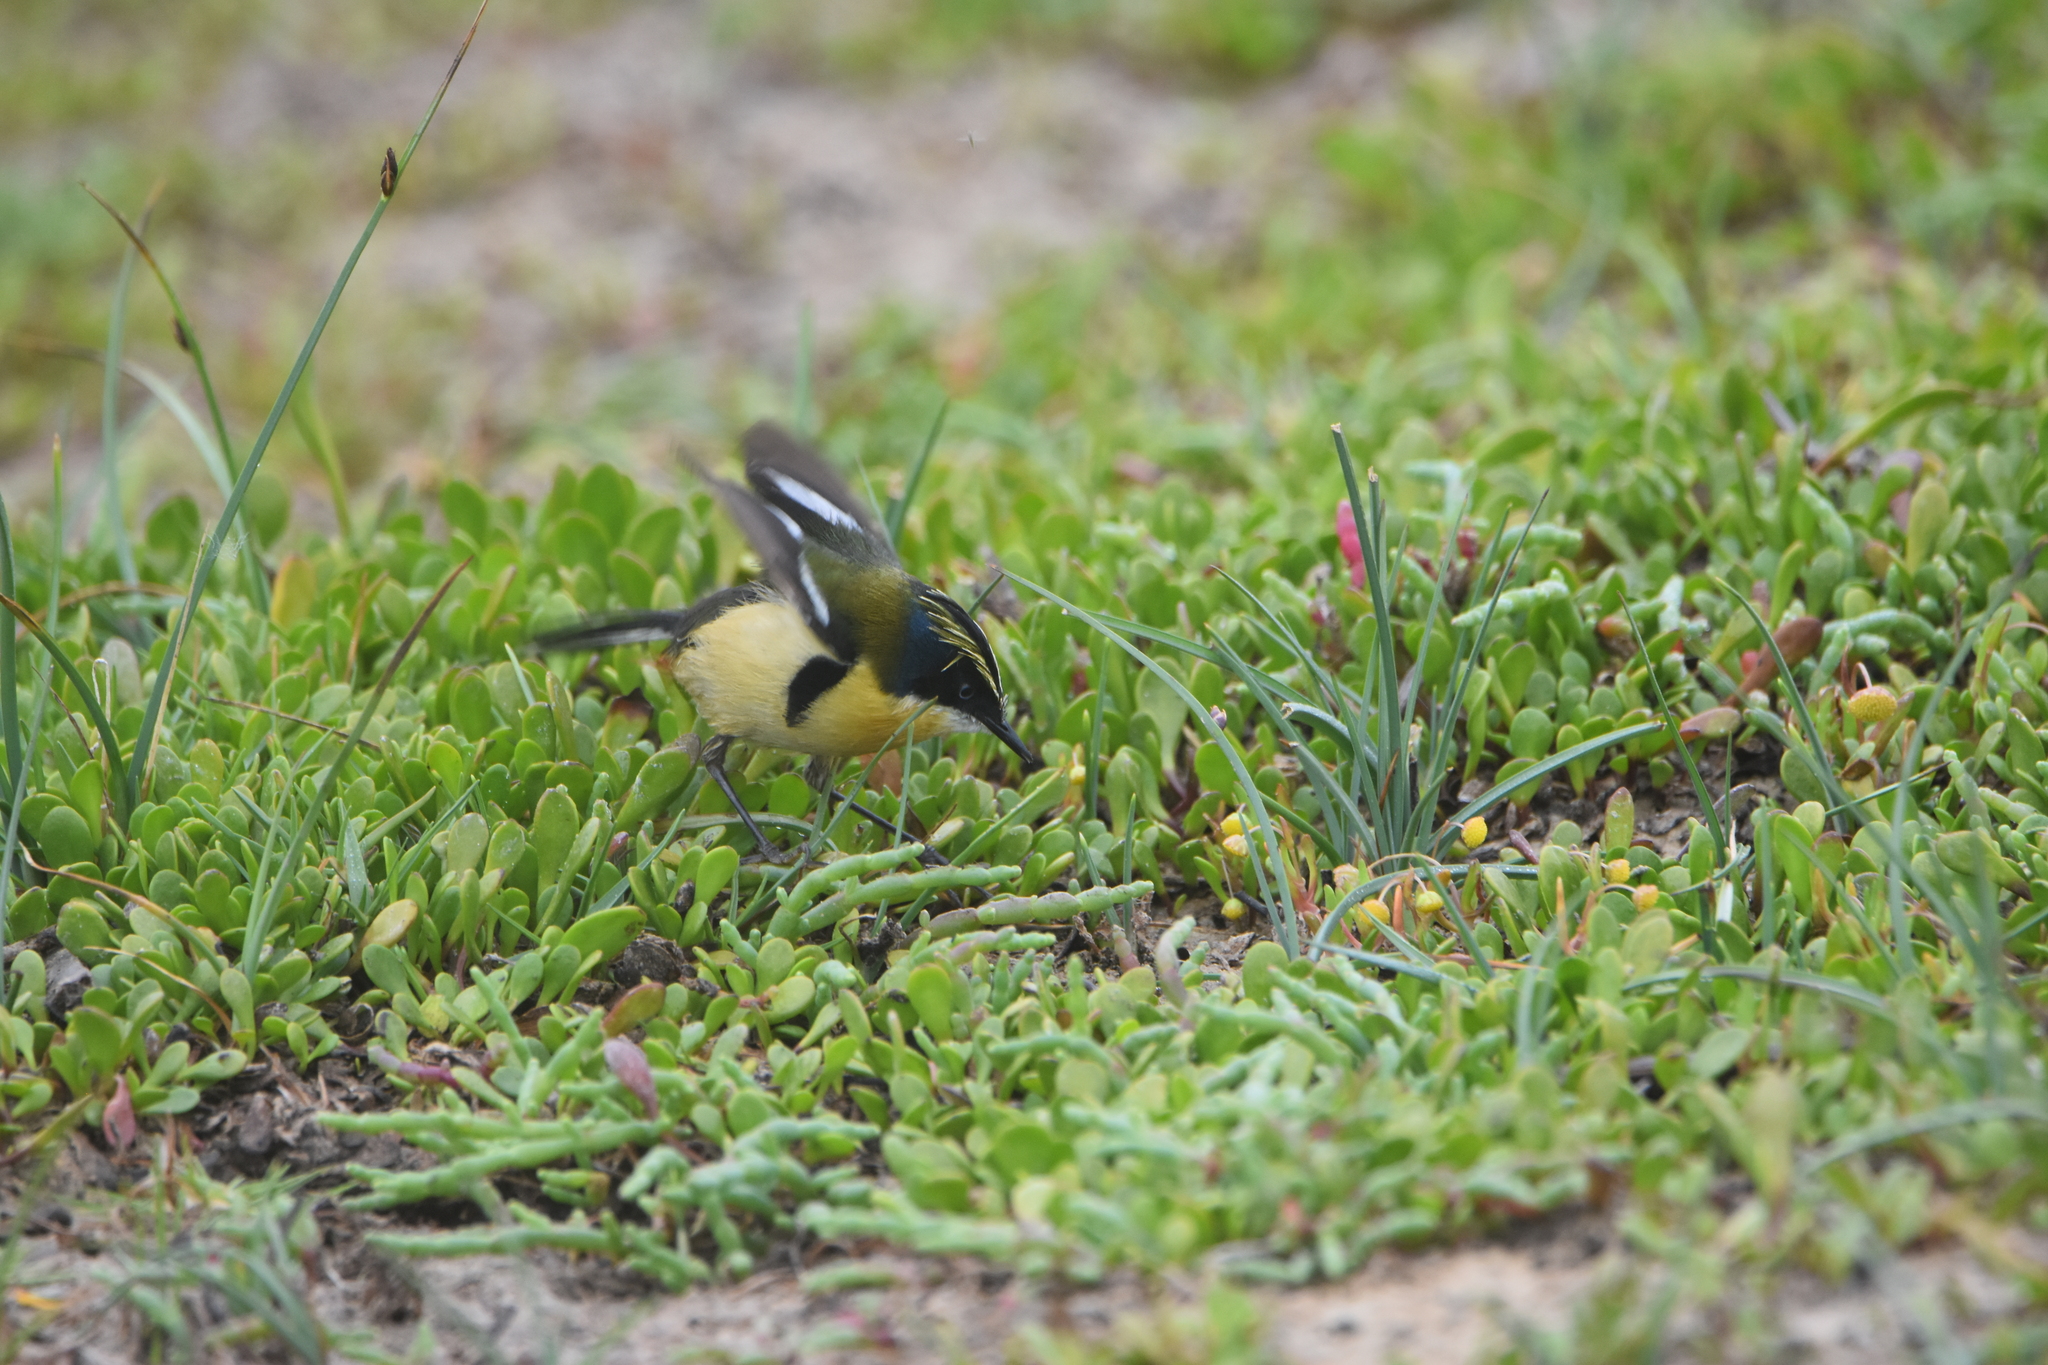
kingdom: Animalia
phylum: Chordata
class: Aves
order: Passeriformes
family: Tyrannidae
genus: Tachuris
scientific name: Tachuris rubrigastra
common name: Many-colored rush tyrant
